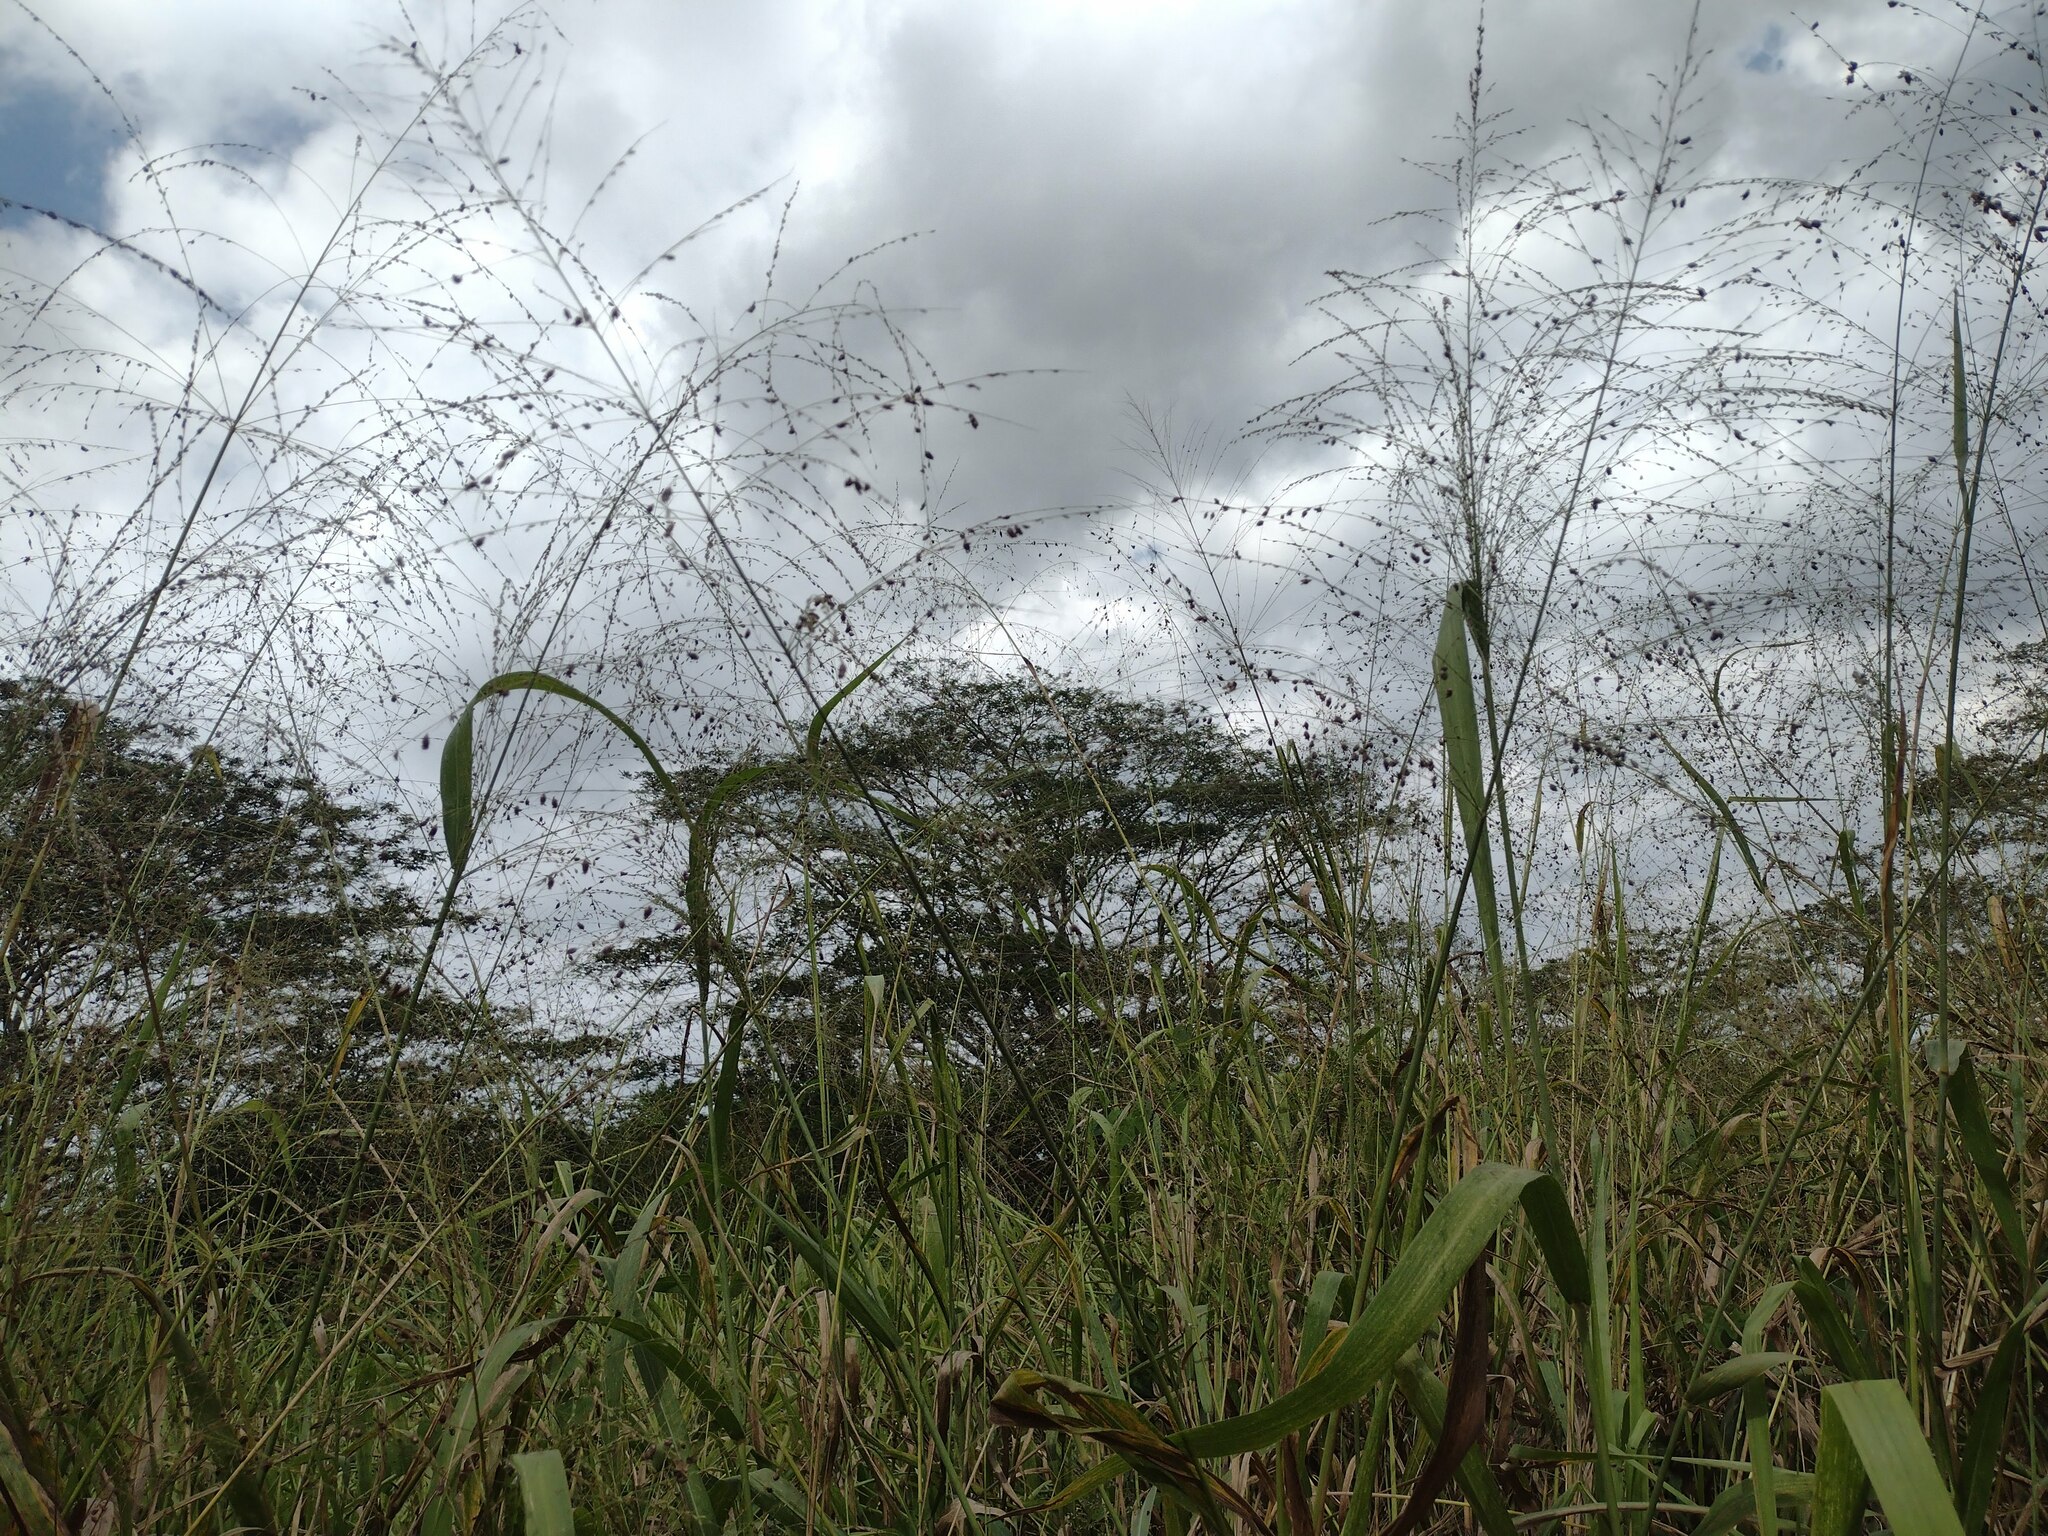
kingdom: Plantae
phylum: Tracheophyta
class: Liliopsida
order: Poales
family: Poaceae
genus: Megathyrsus
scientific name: Megathyrsus maximus
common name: Guineagrass
